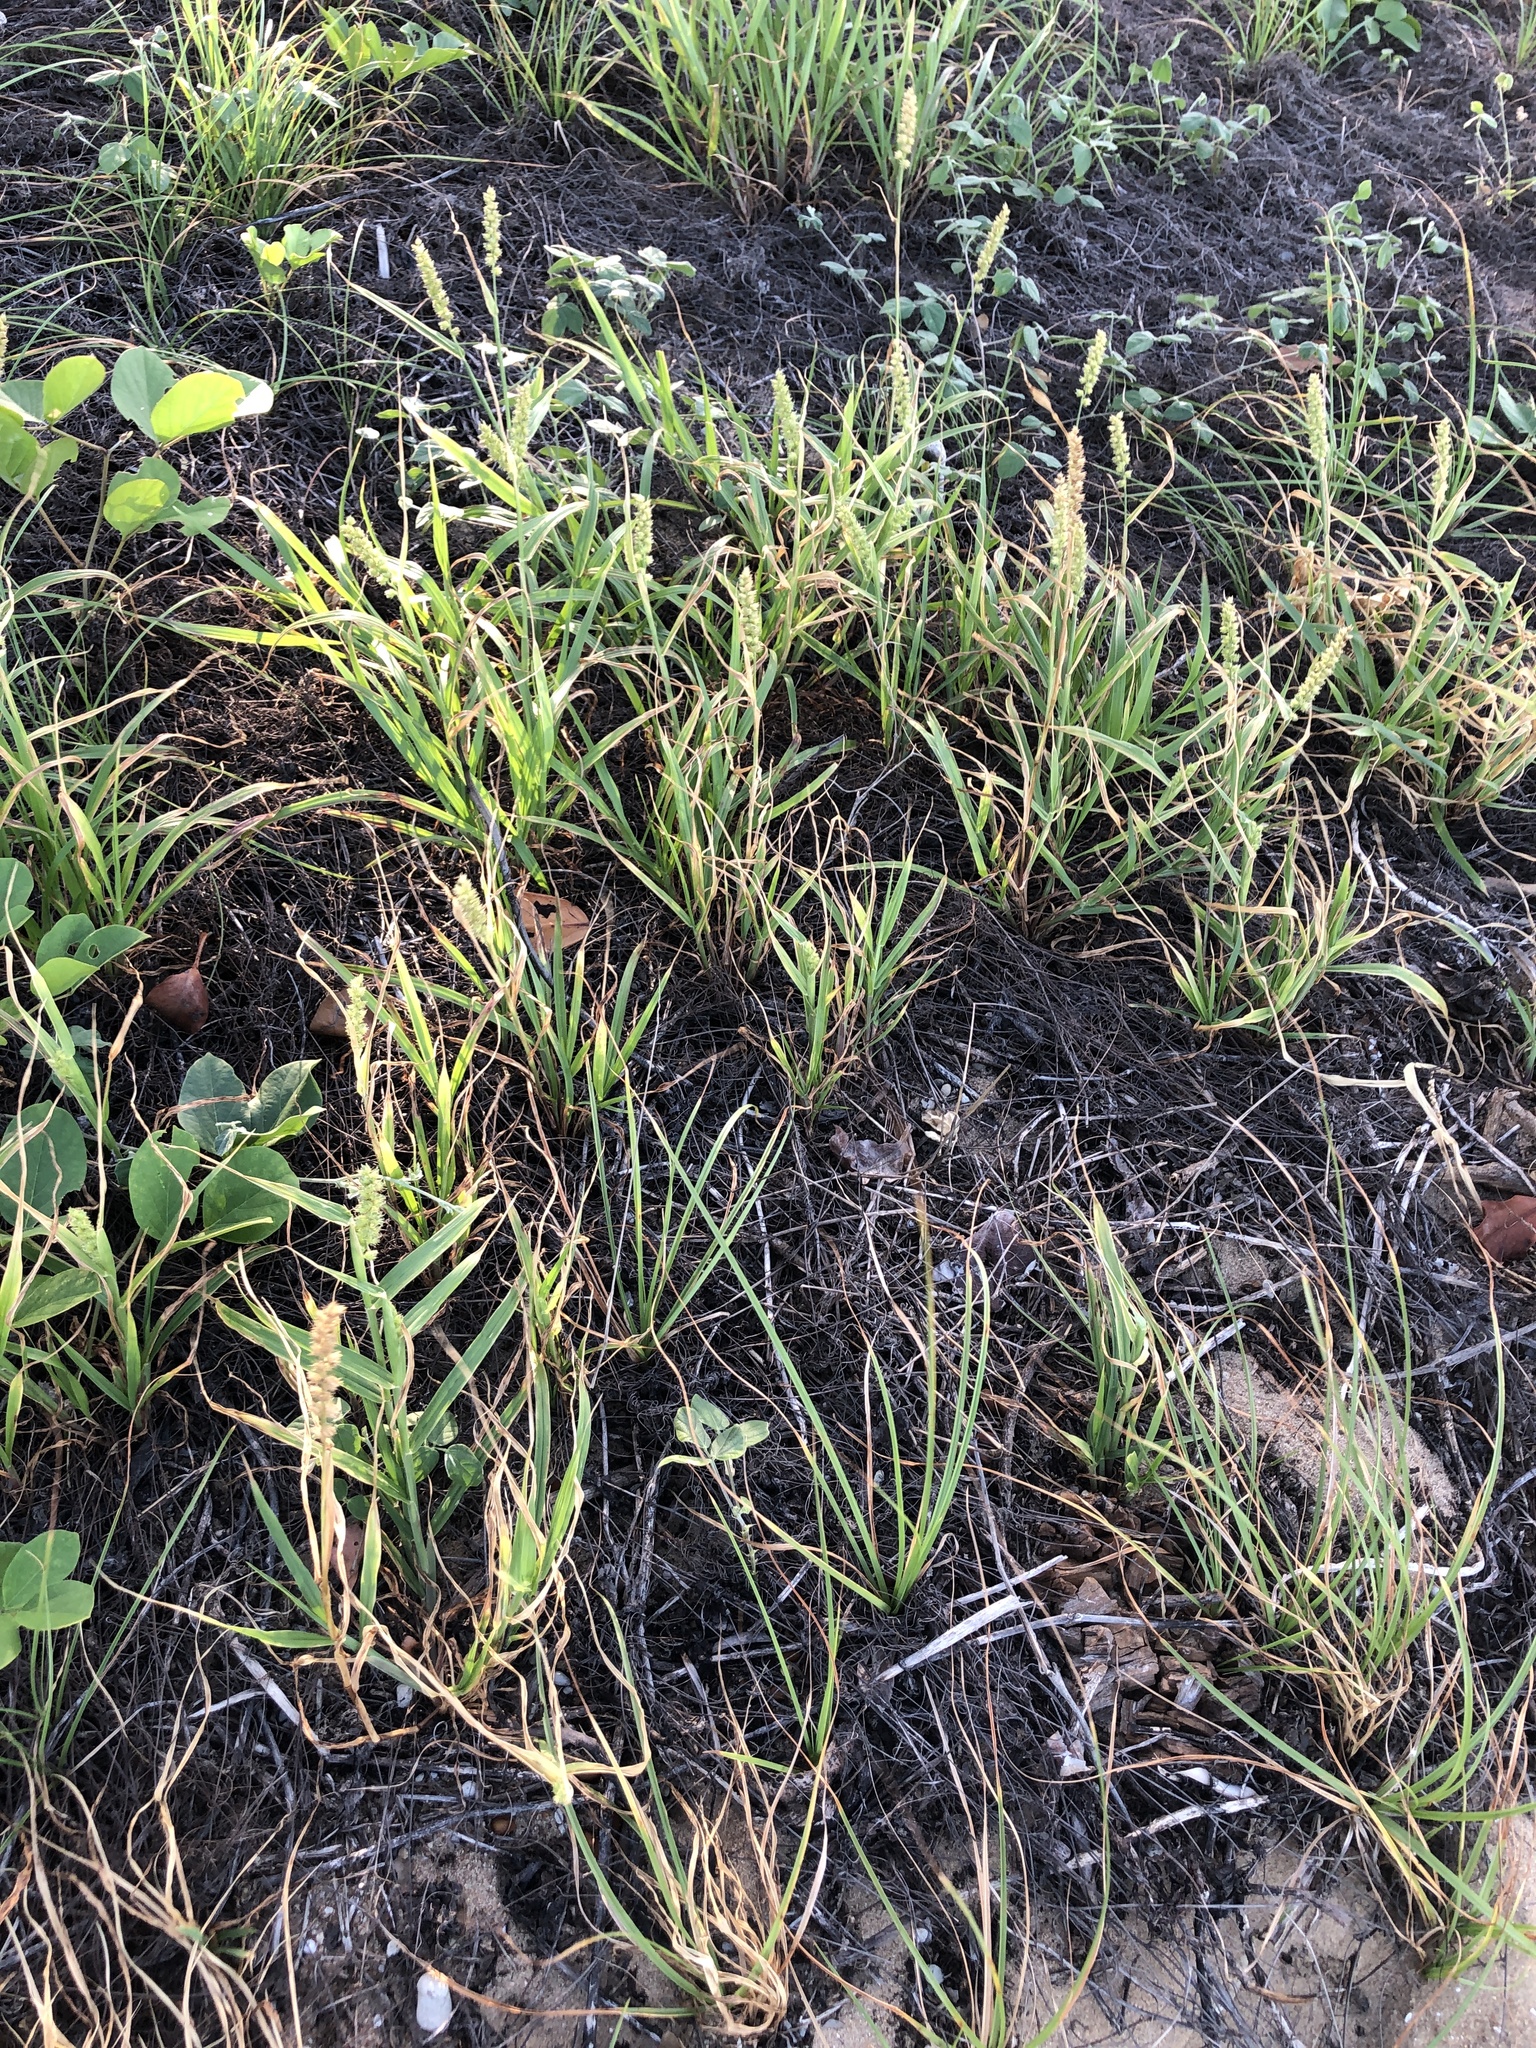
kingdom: Plantae
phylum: Tracheophyta
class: Liliopsida
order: Poales
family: Poaceae
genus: Cenchrus
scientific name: Cenchrus echinatus
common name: Southern sandbur
